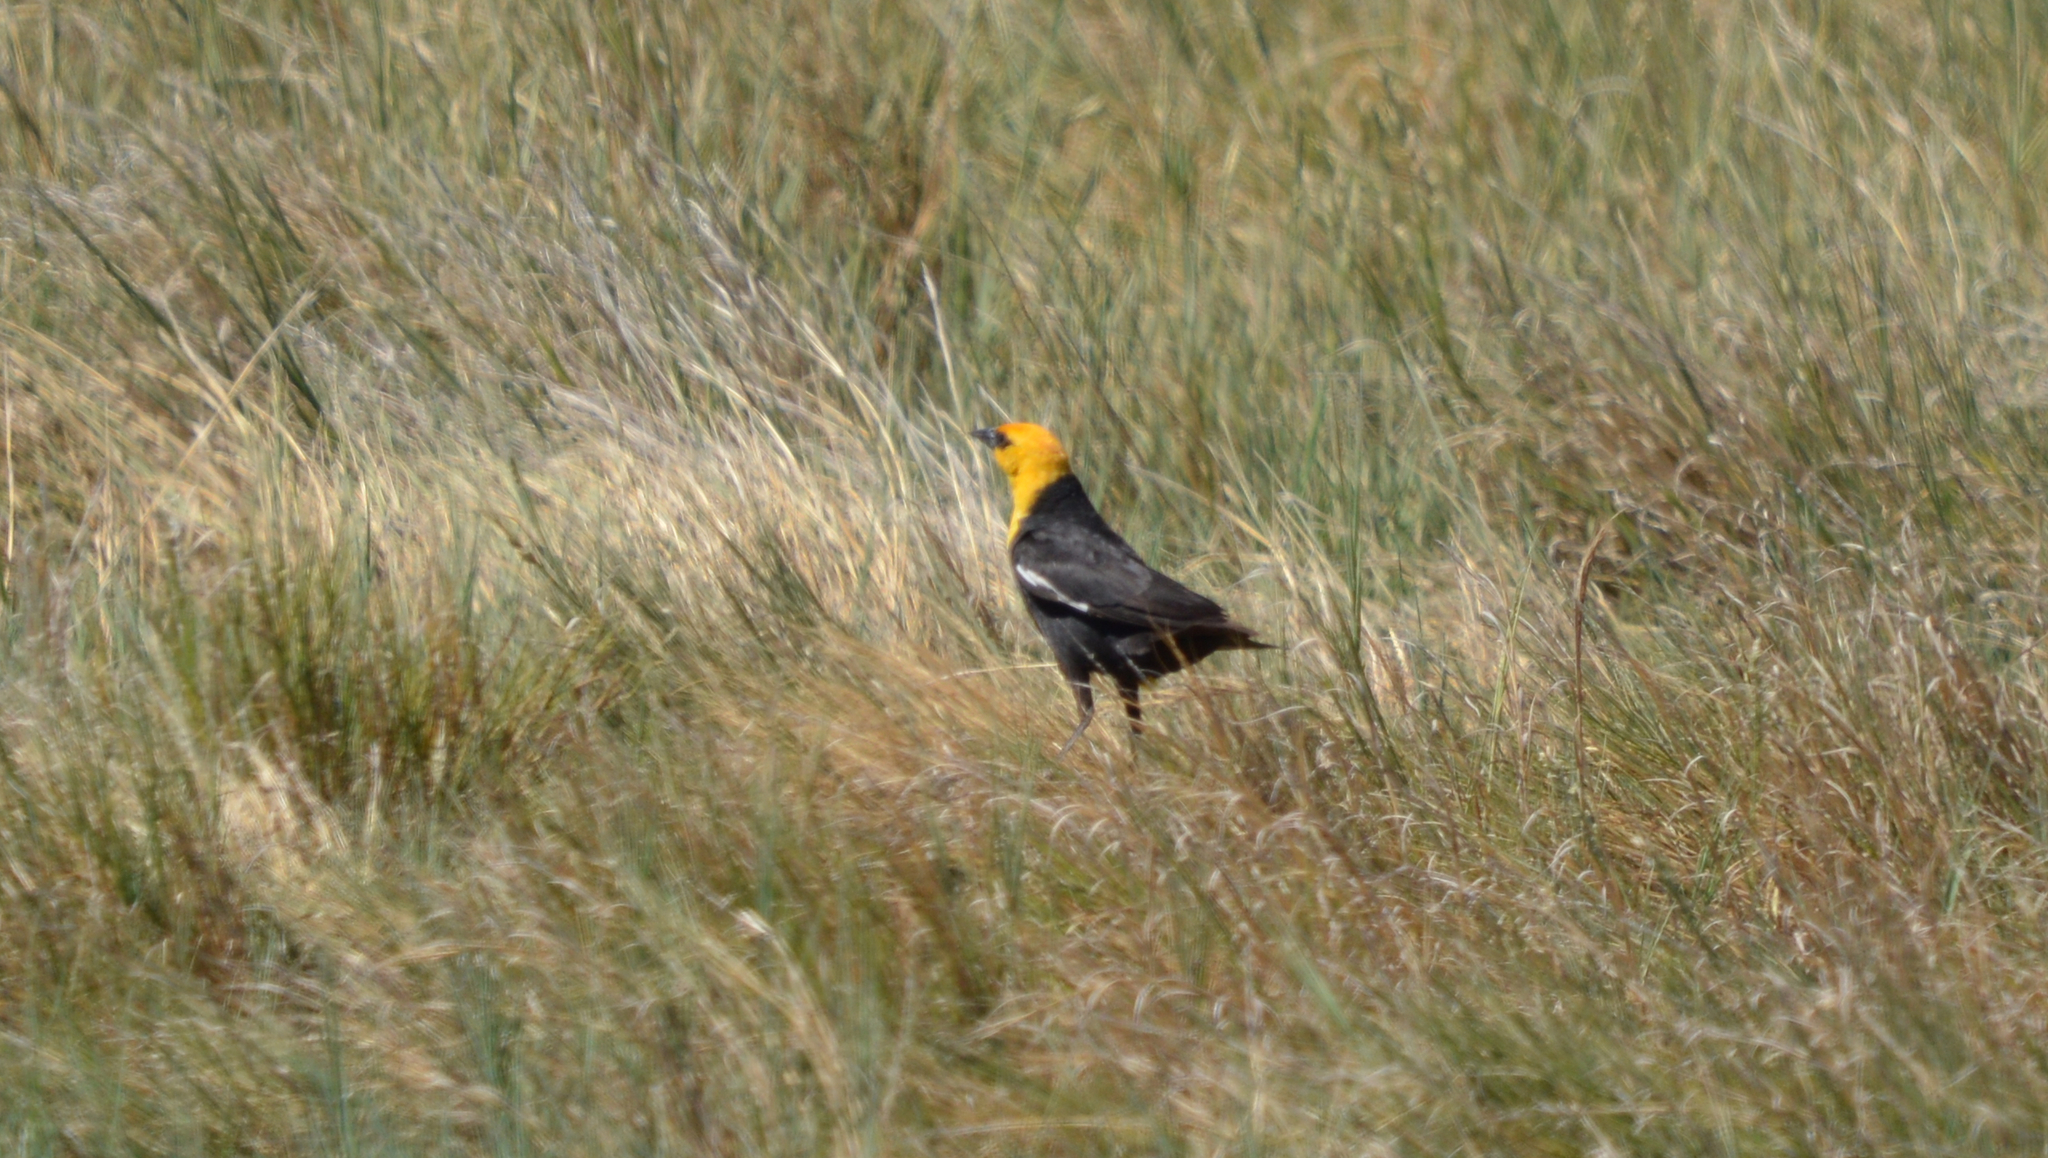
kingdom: Animalia
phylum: Chordata
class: Aves
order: Passeriformes
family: Icteridae
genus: Xanthocephalus
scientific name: Xanthocephalus xanthocephalus
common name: Yellow-headed blackbird
